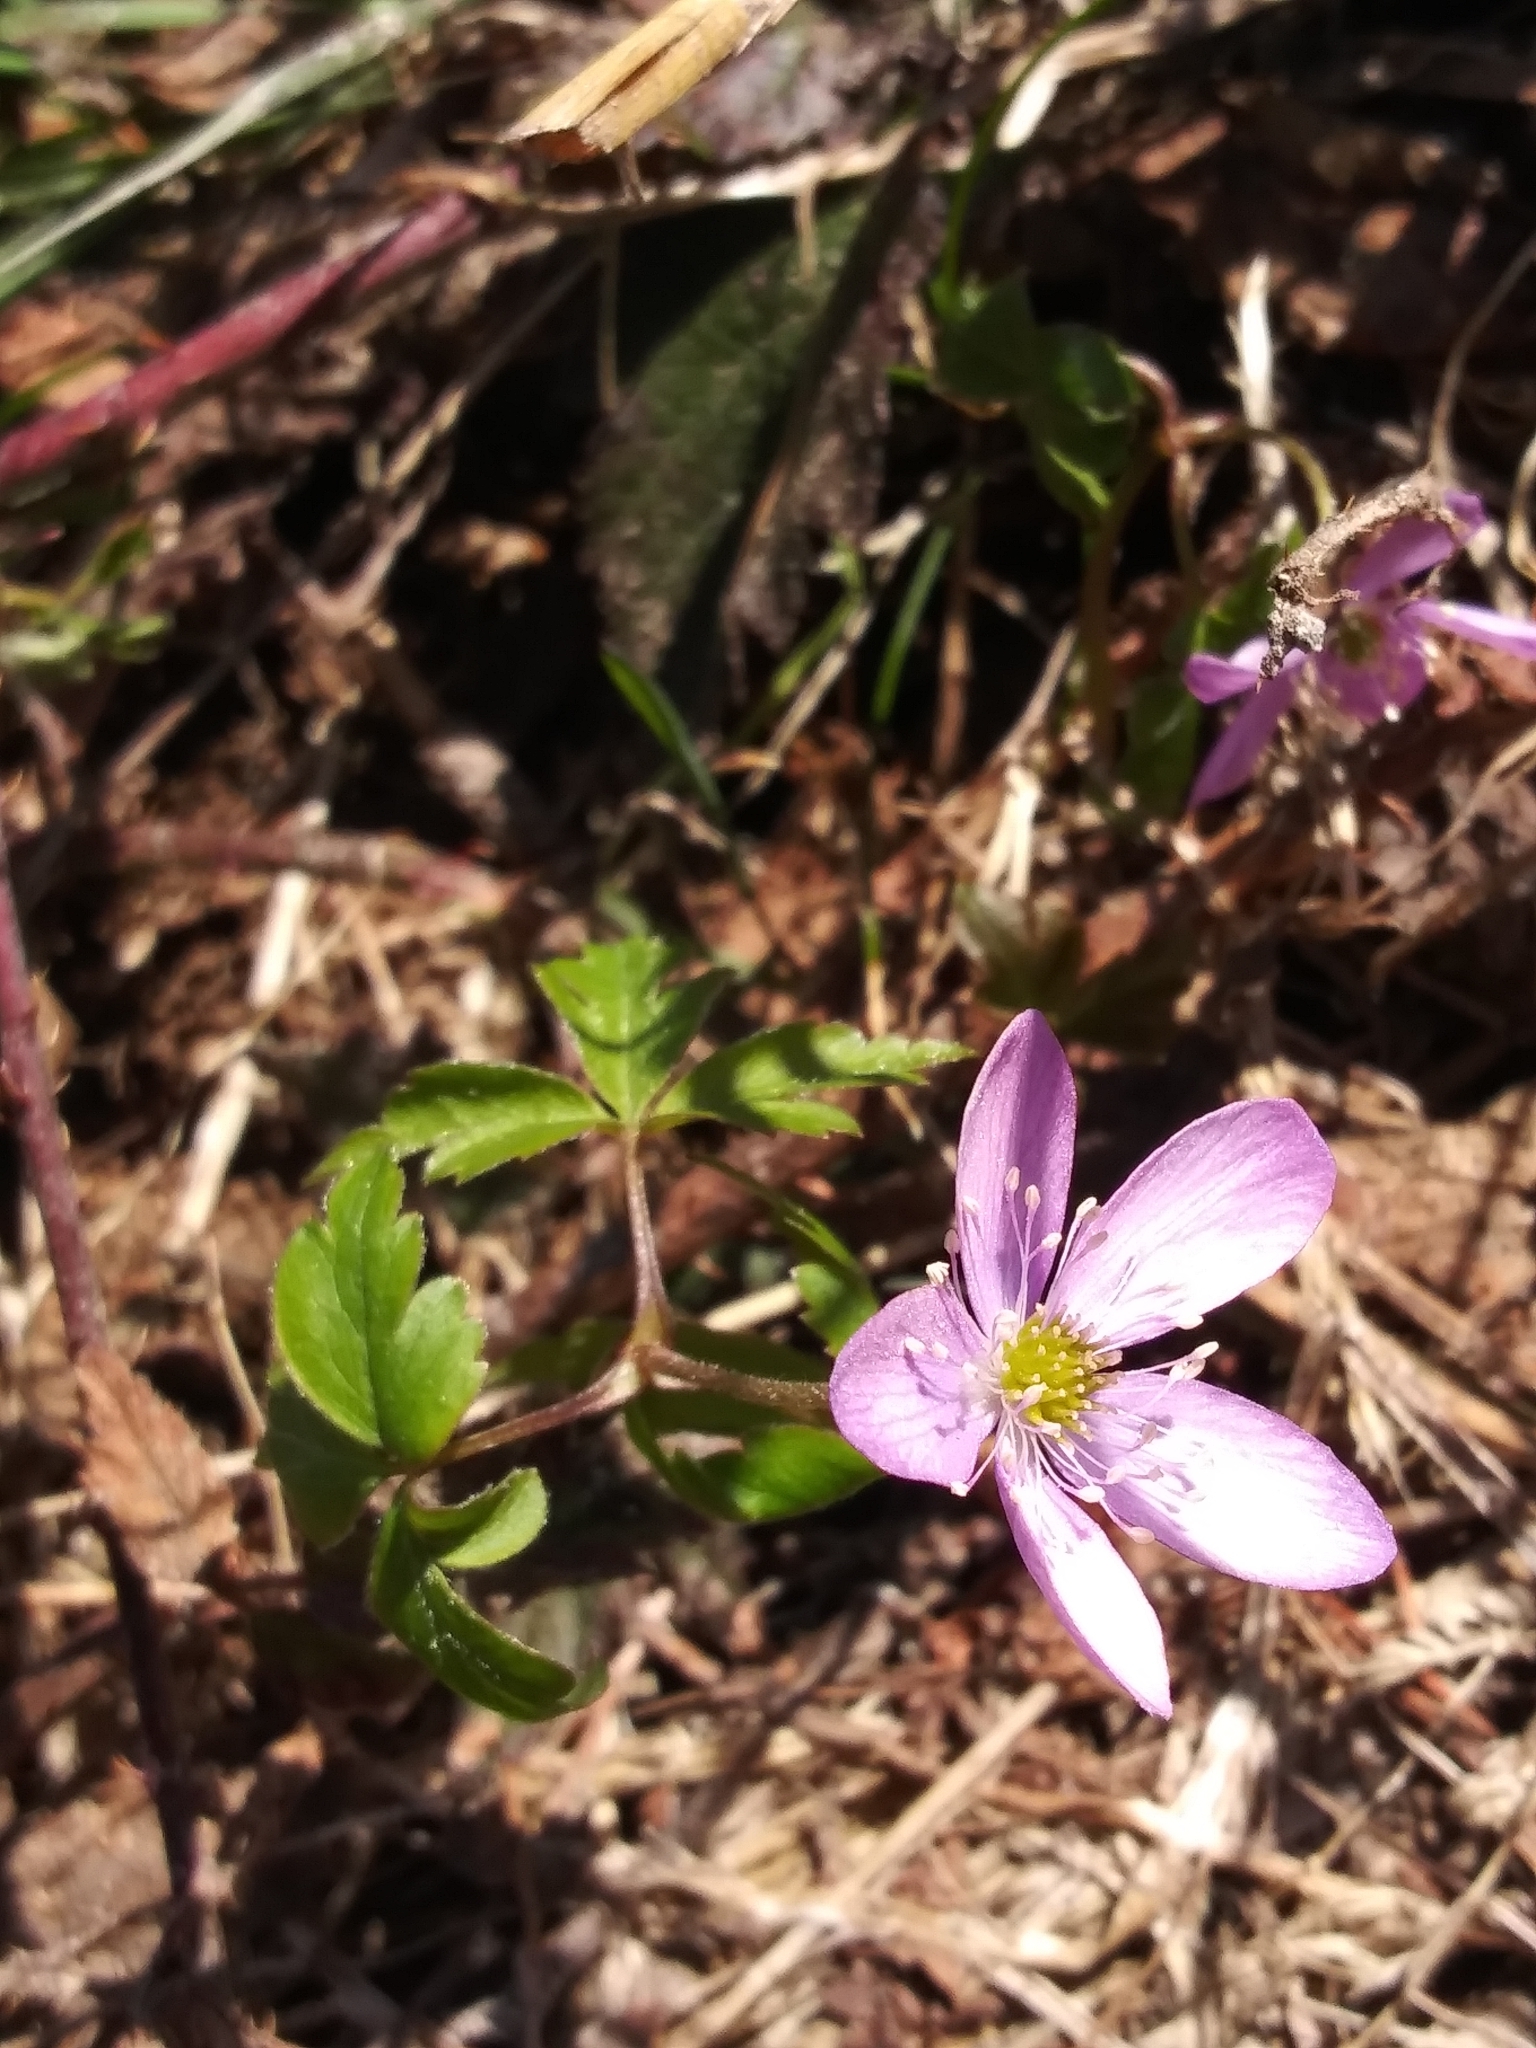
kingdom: Plantae
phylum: Tracheophyta
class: Magnoliopsida
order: Ranunculales
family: Ranunculaceae
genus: Anemone
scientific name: Anemone oregana
